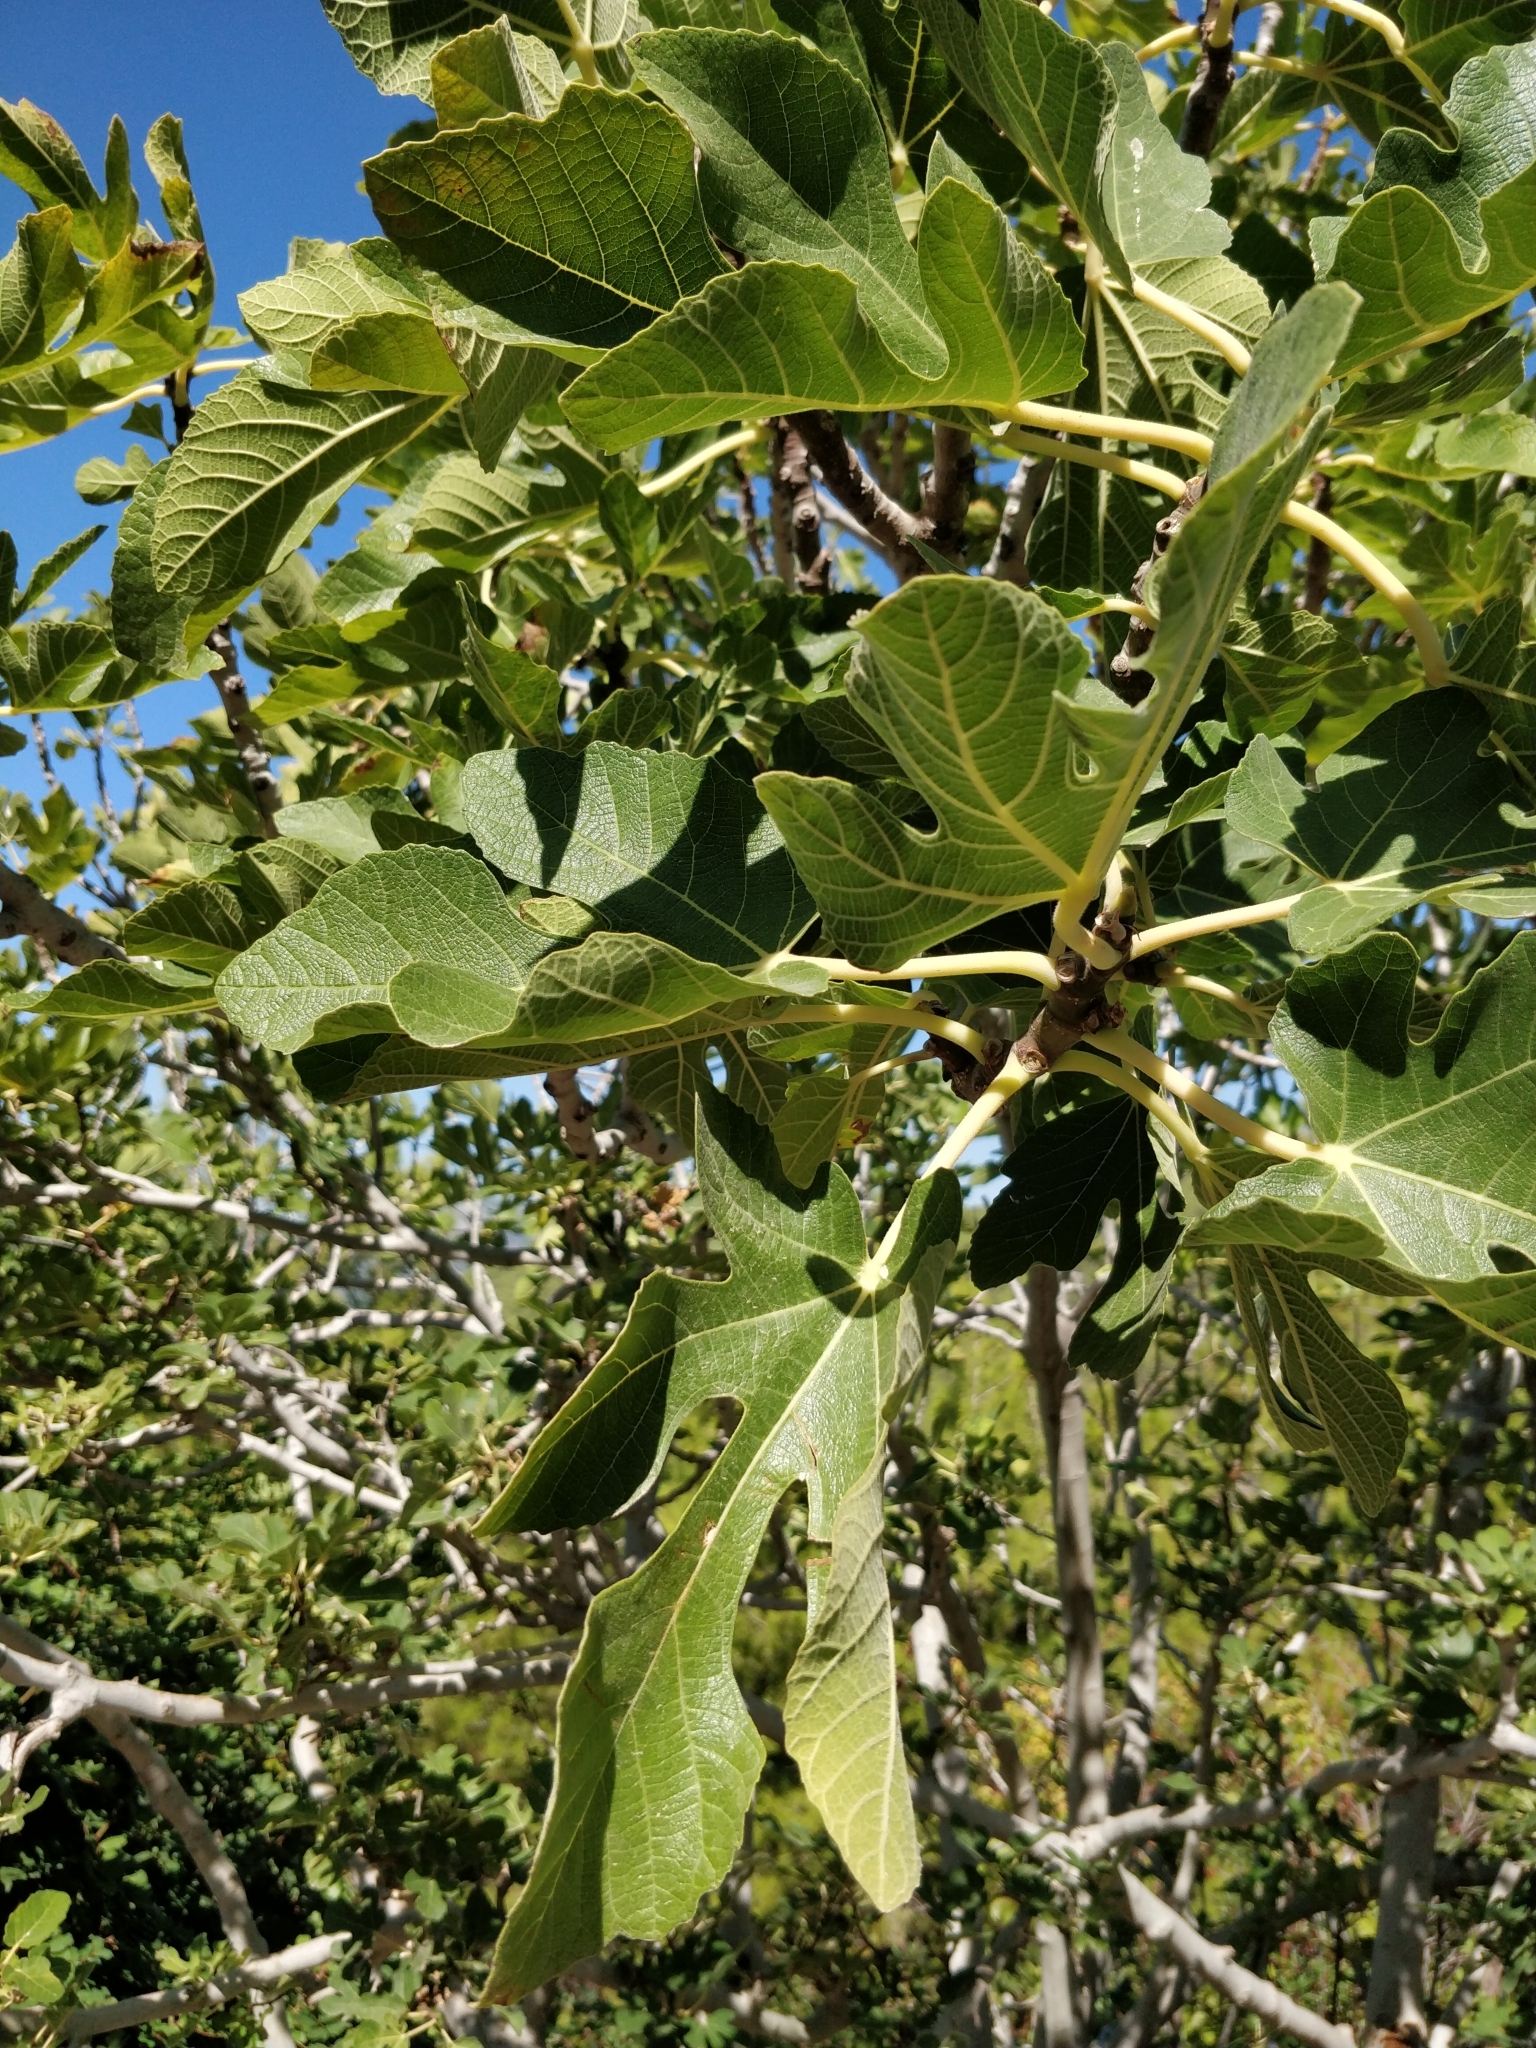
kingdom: Plantae
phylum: Tracheophyta
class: Magnoliopsida
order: Rosales
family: Moraceae
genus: Ficus
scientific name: Ficus carica
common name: Fig
